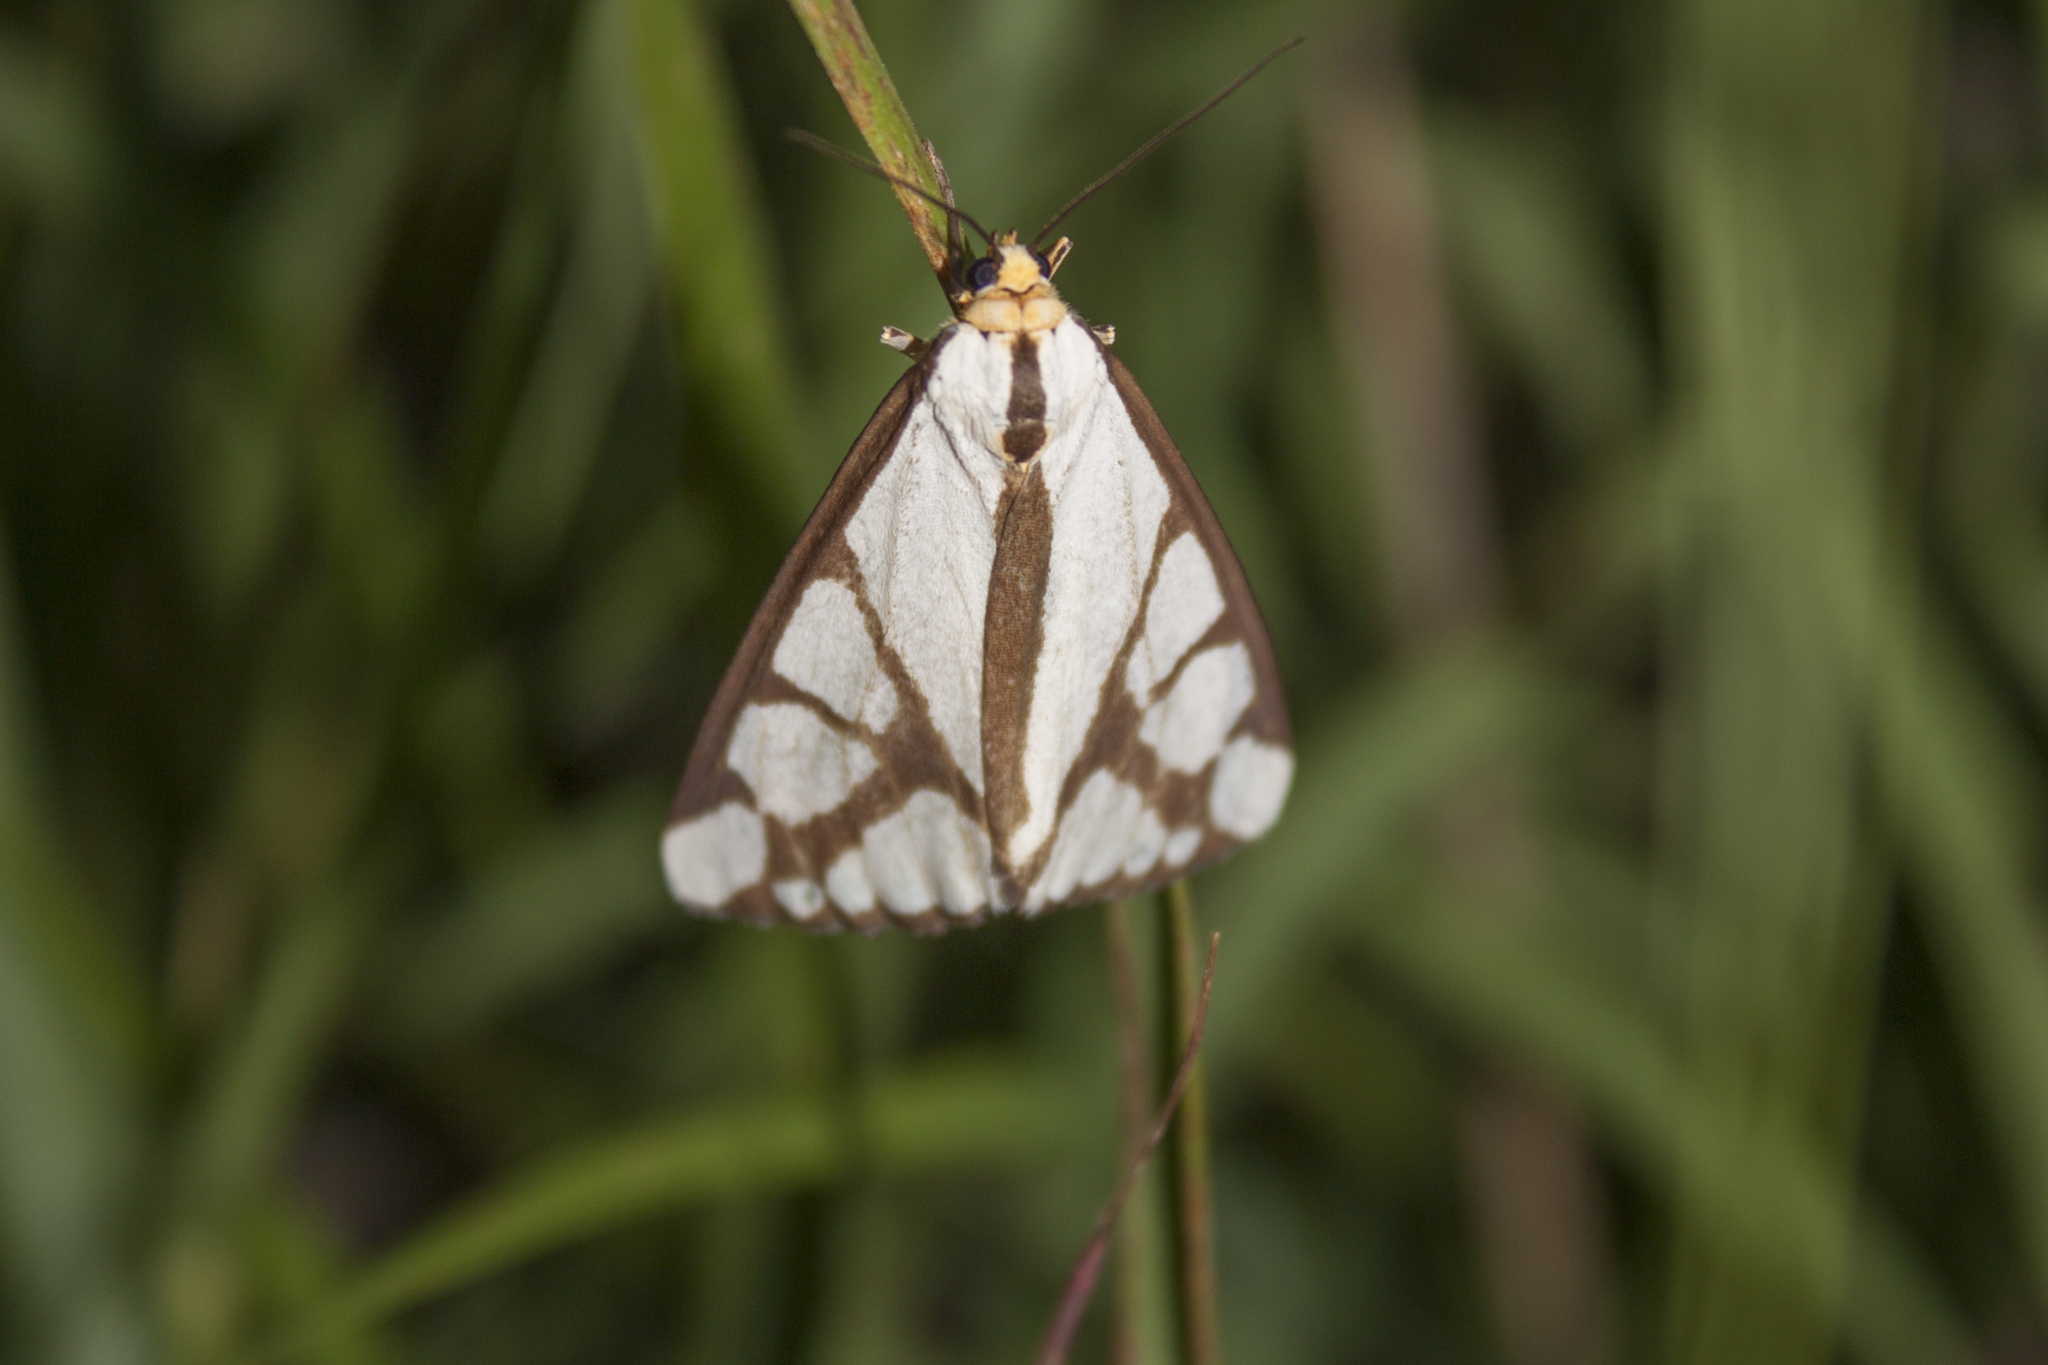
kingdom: Animalia
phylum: Arthropoda
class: Insecta
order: Lepidoptera
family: Erebidae
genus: Haploa
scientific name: Haploa reversa
